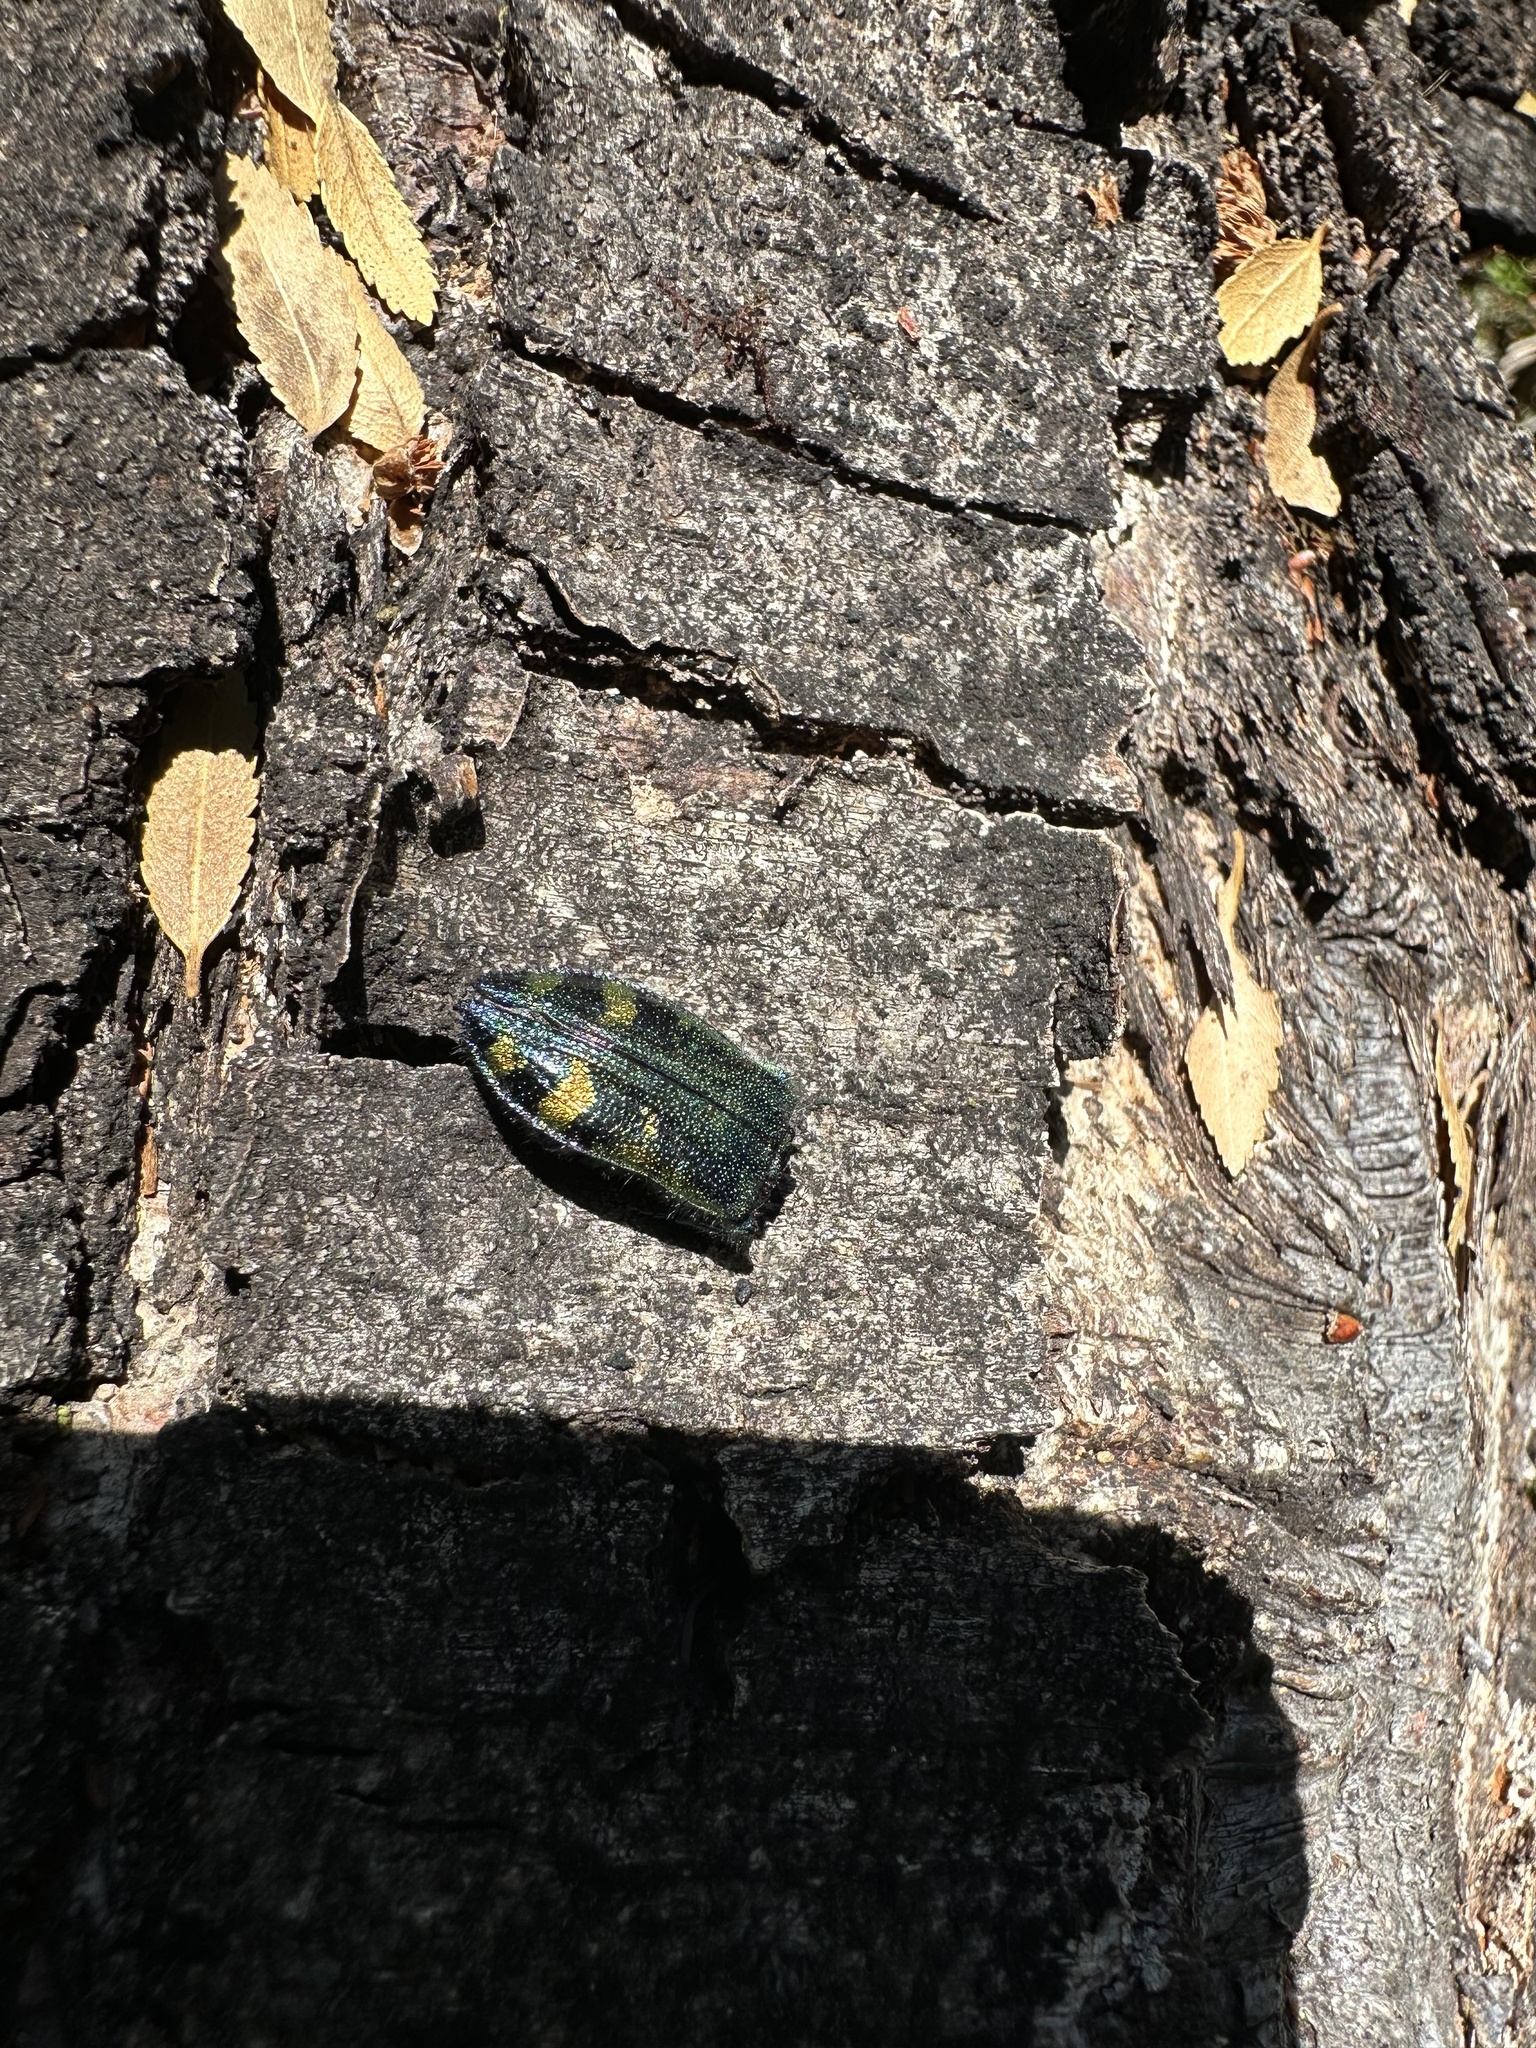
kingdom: Animalia
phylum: Arthropoda
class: Insecta
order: Coleoptera
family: Buprestidae
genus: Hypoprasis
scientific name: Hypoprasis elegans
